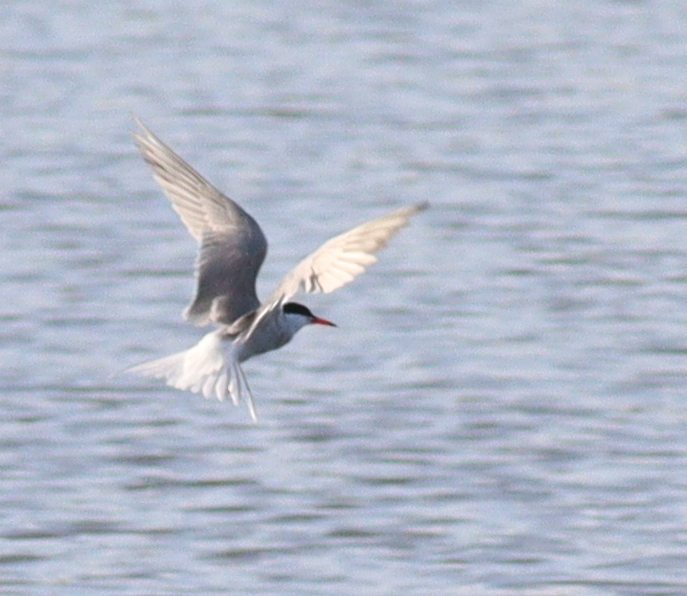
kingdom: Animalia
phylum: Chordata
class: Aves
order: Charadriiformes
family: Laridae
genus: Sterna
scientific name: Sterna hirundo
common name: Common tern
